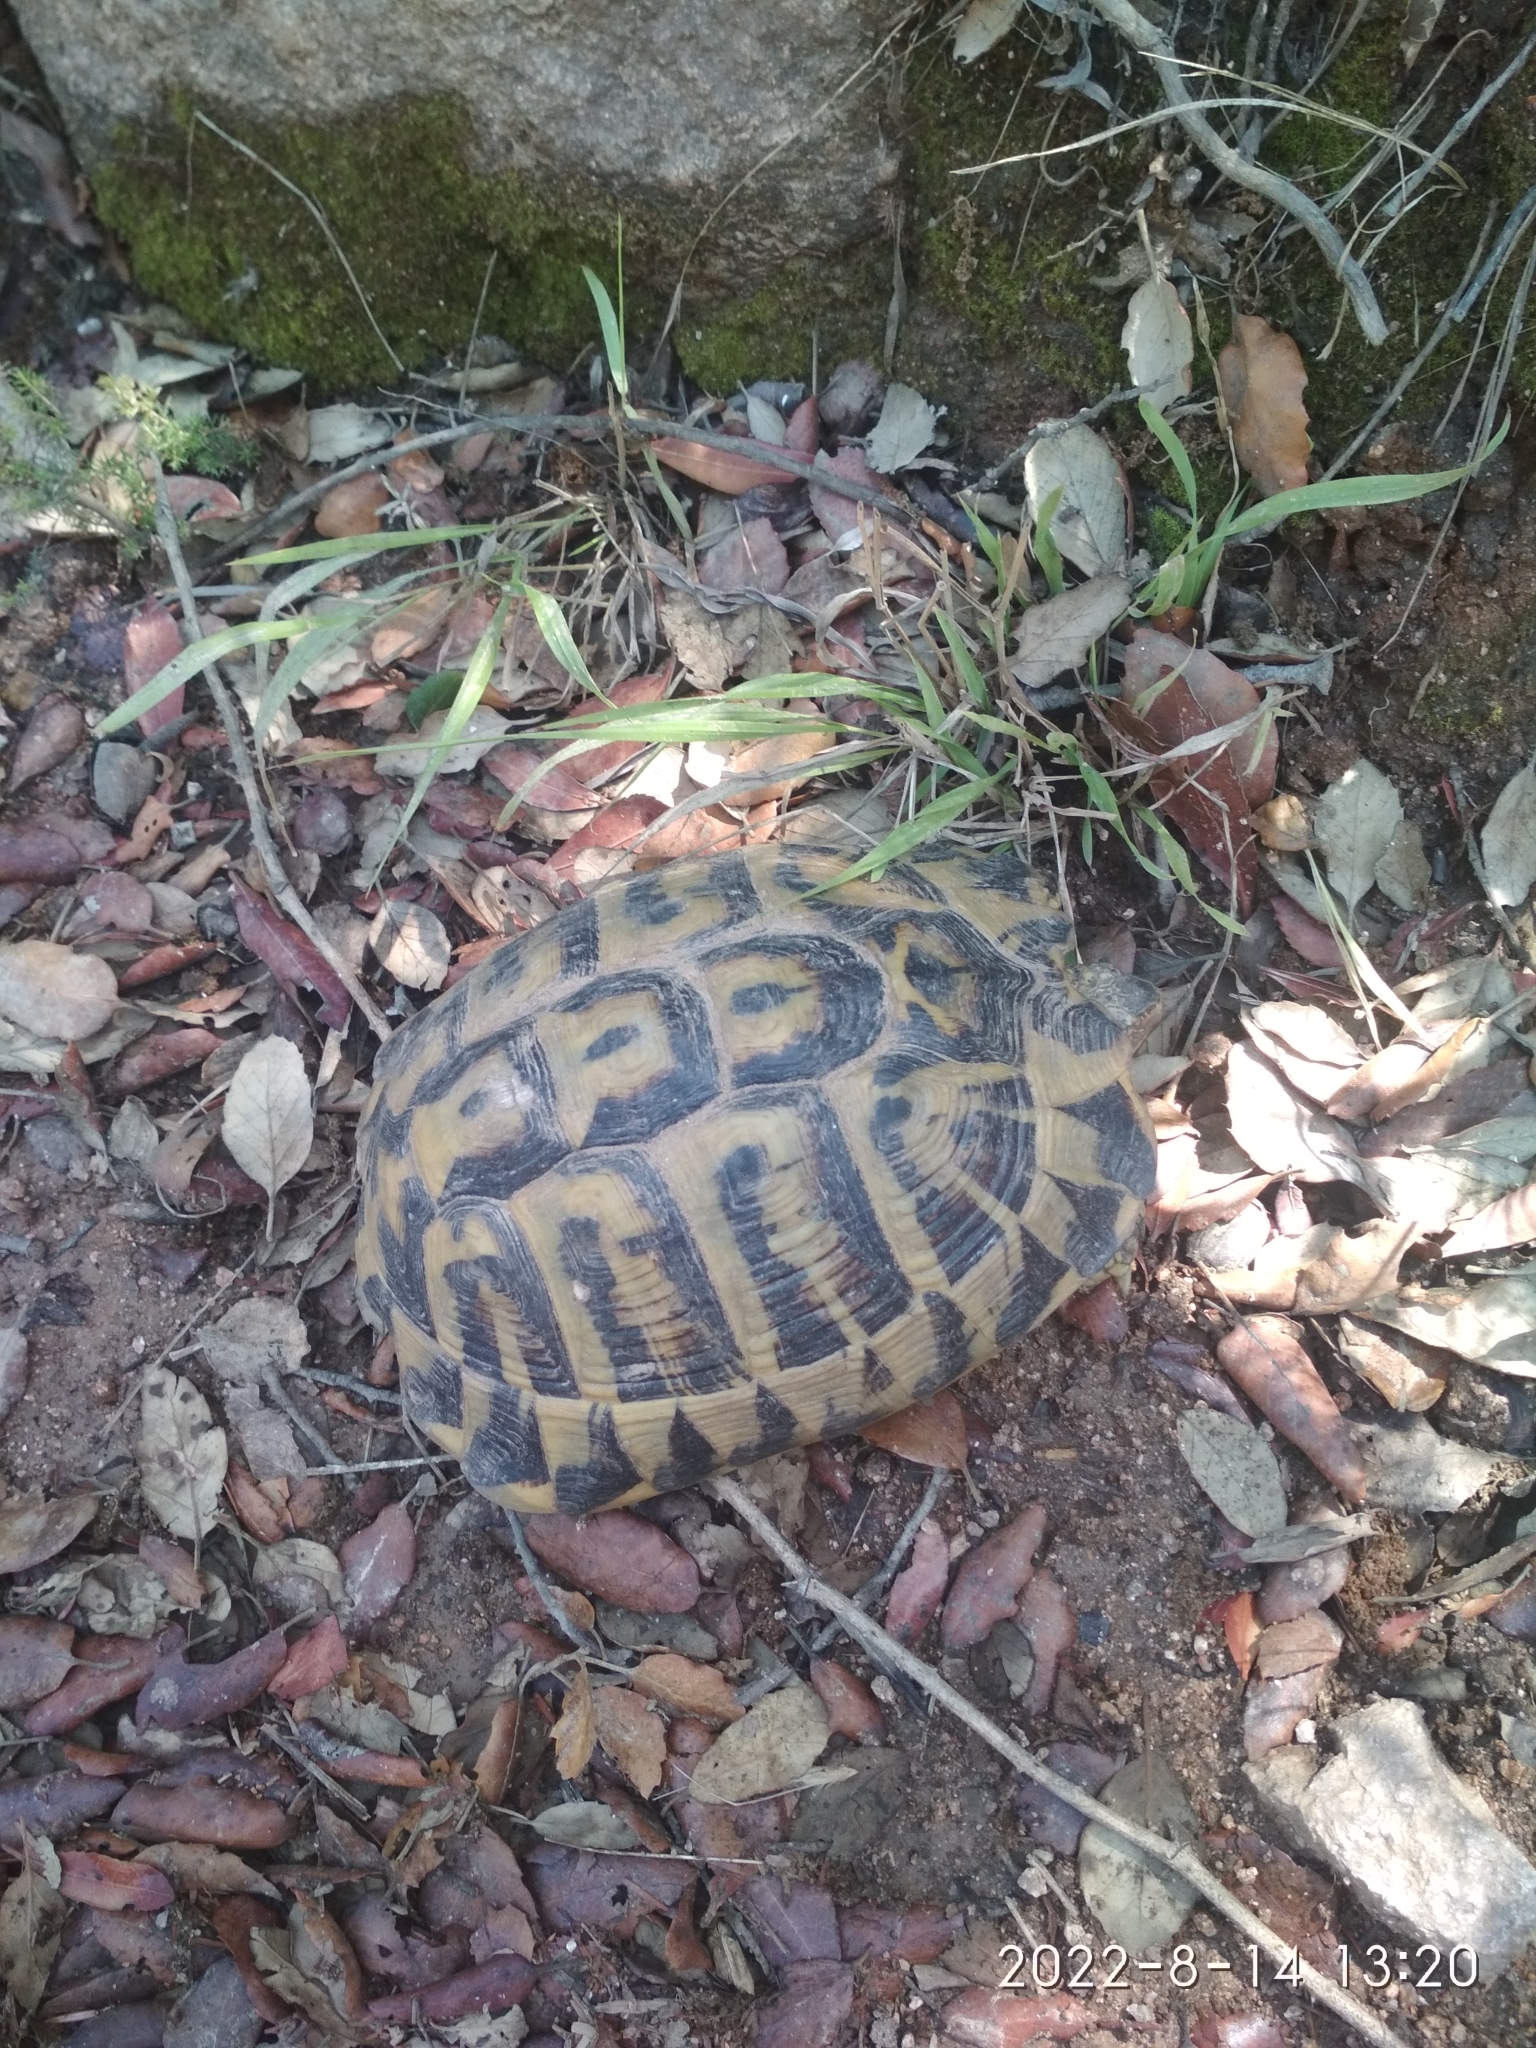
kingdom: Animalia
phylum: Chordata
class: Testudines
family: Testudinidae
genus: Testudo
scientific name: Testudo hermanni
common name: Hermann's tortoise
